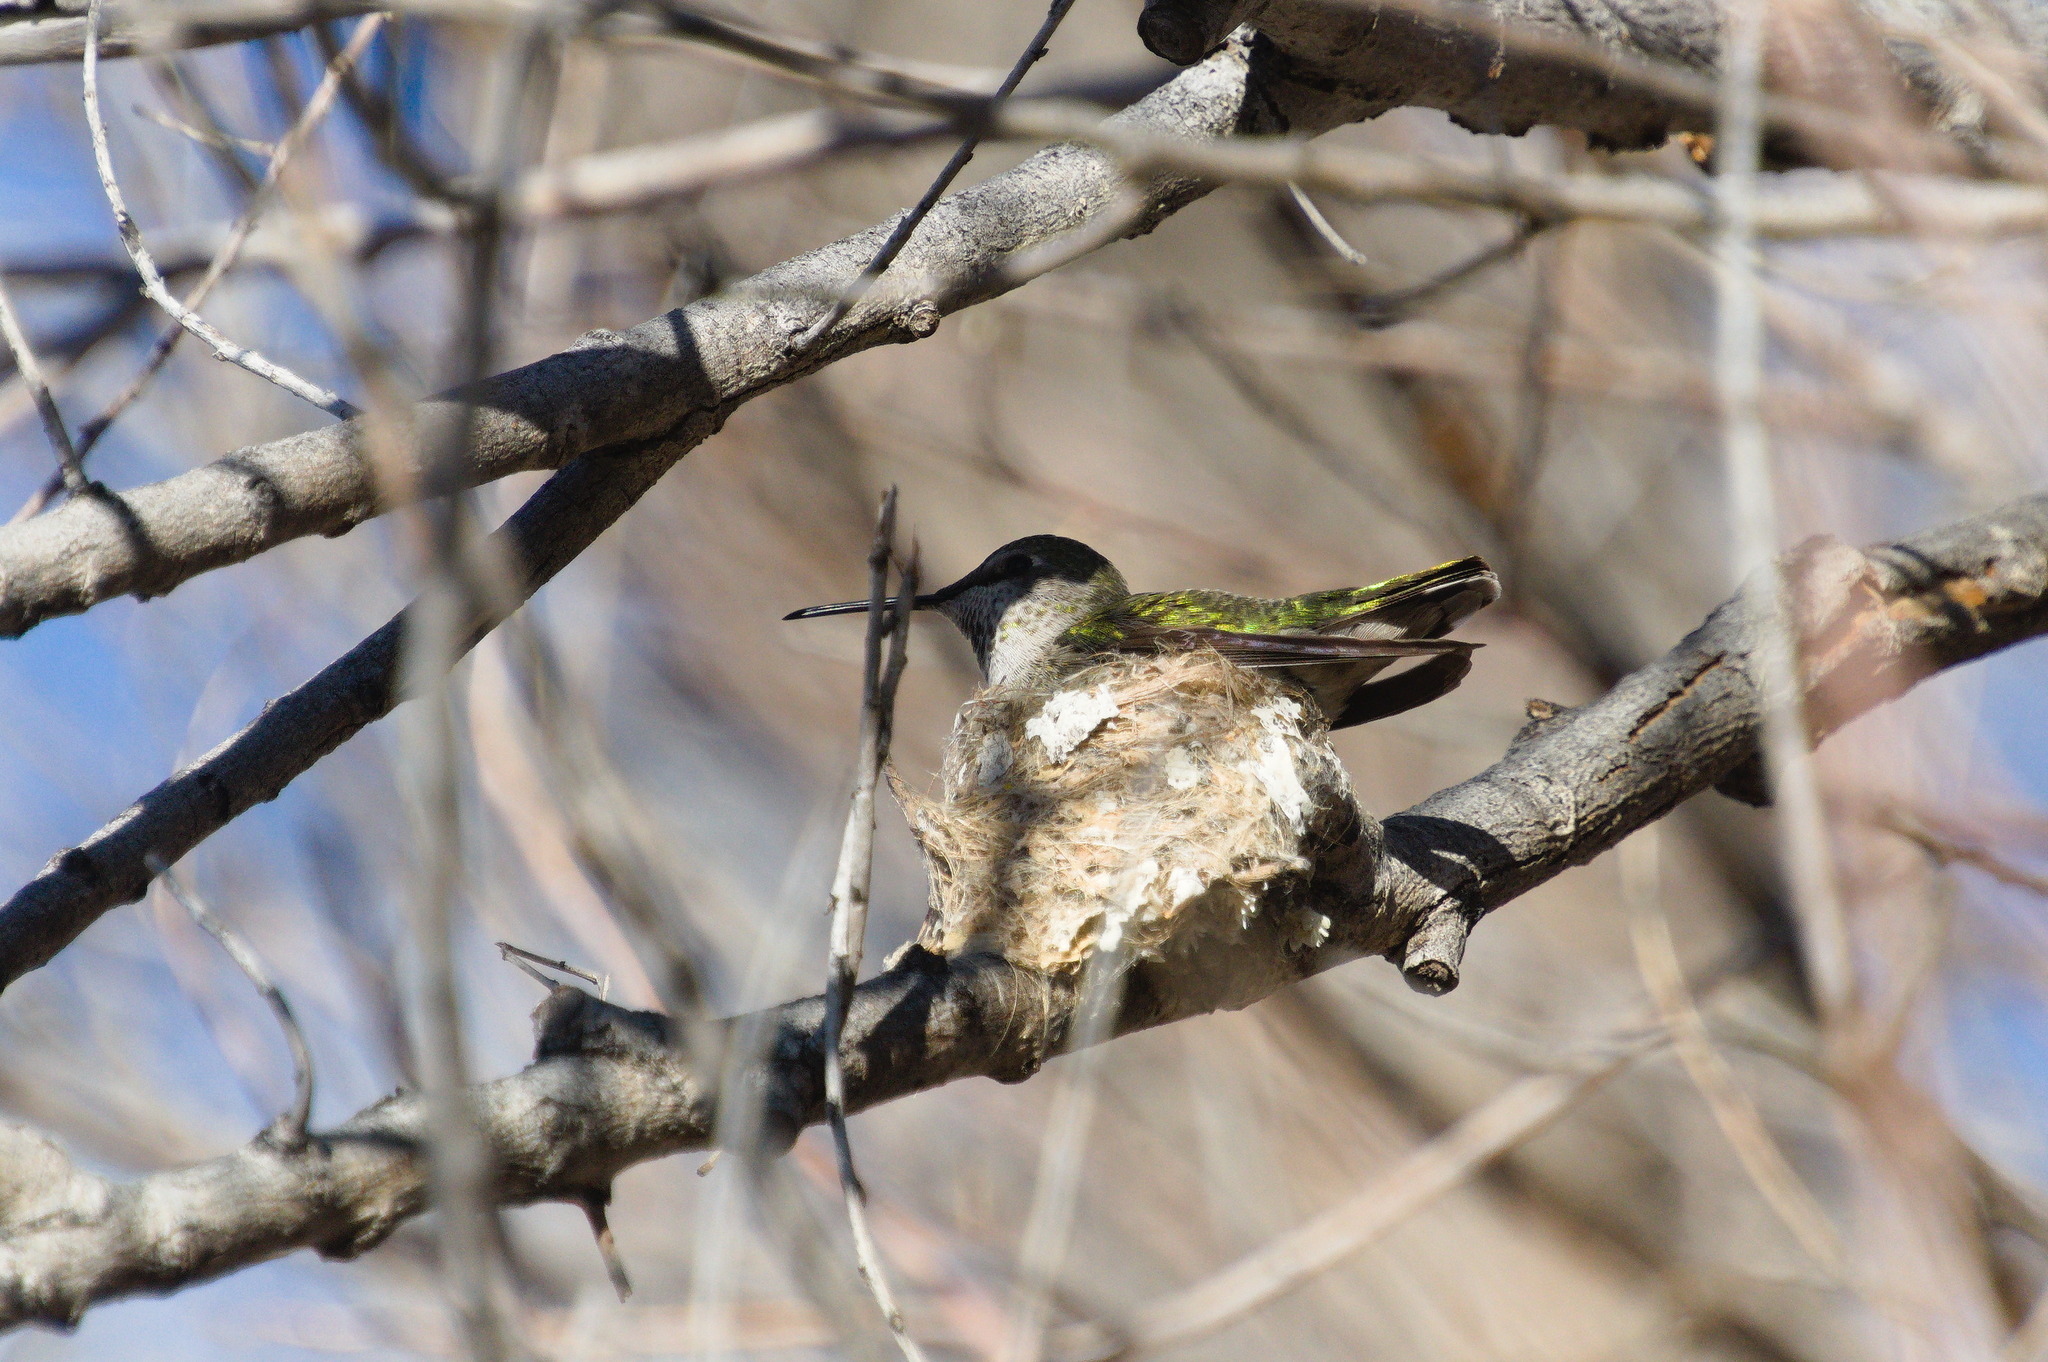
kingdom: Animalia
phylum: Chordata
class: Aves
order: Apodiformes
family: Trochilidae
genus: Calypte
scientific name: Calypte anna
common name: Anna's hummingbird
